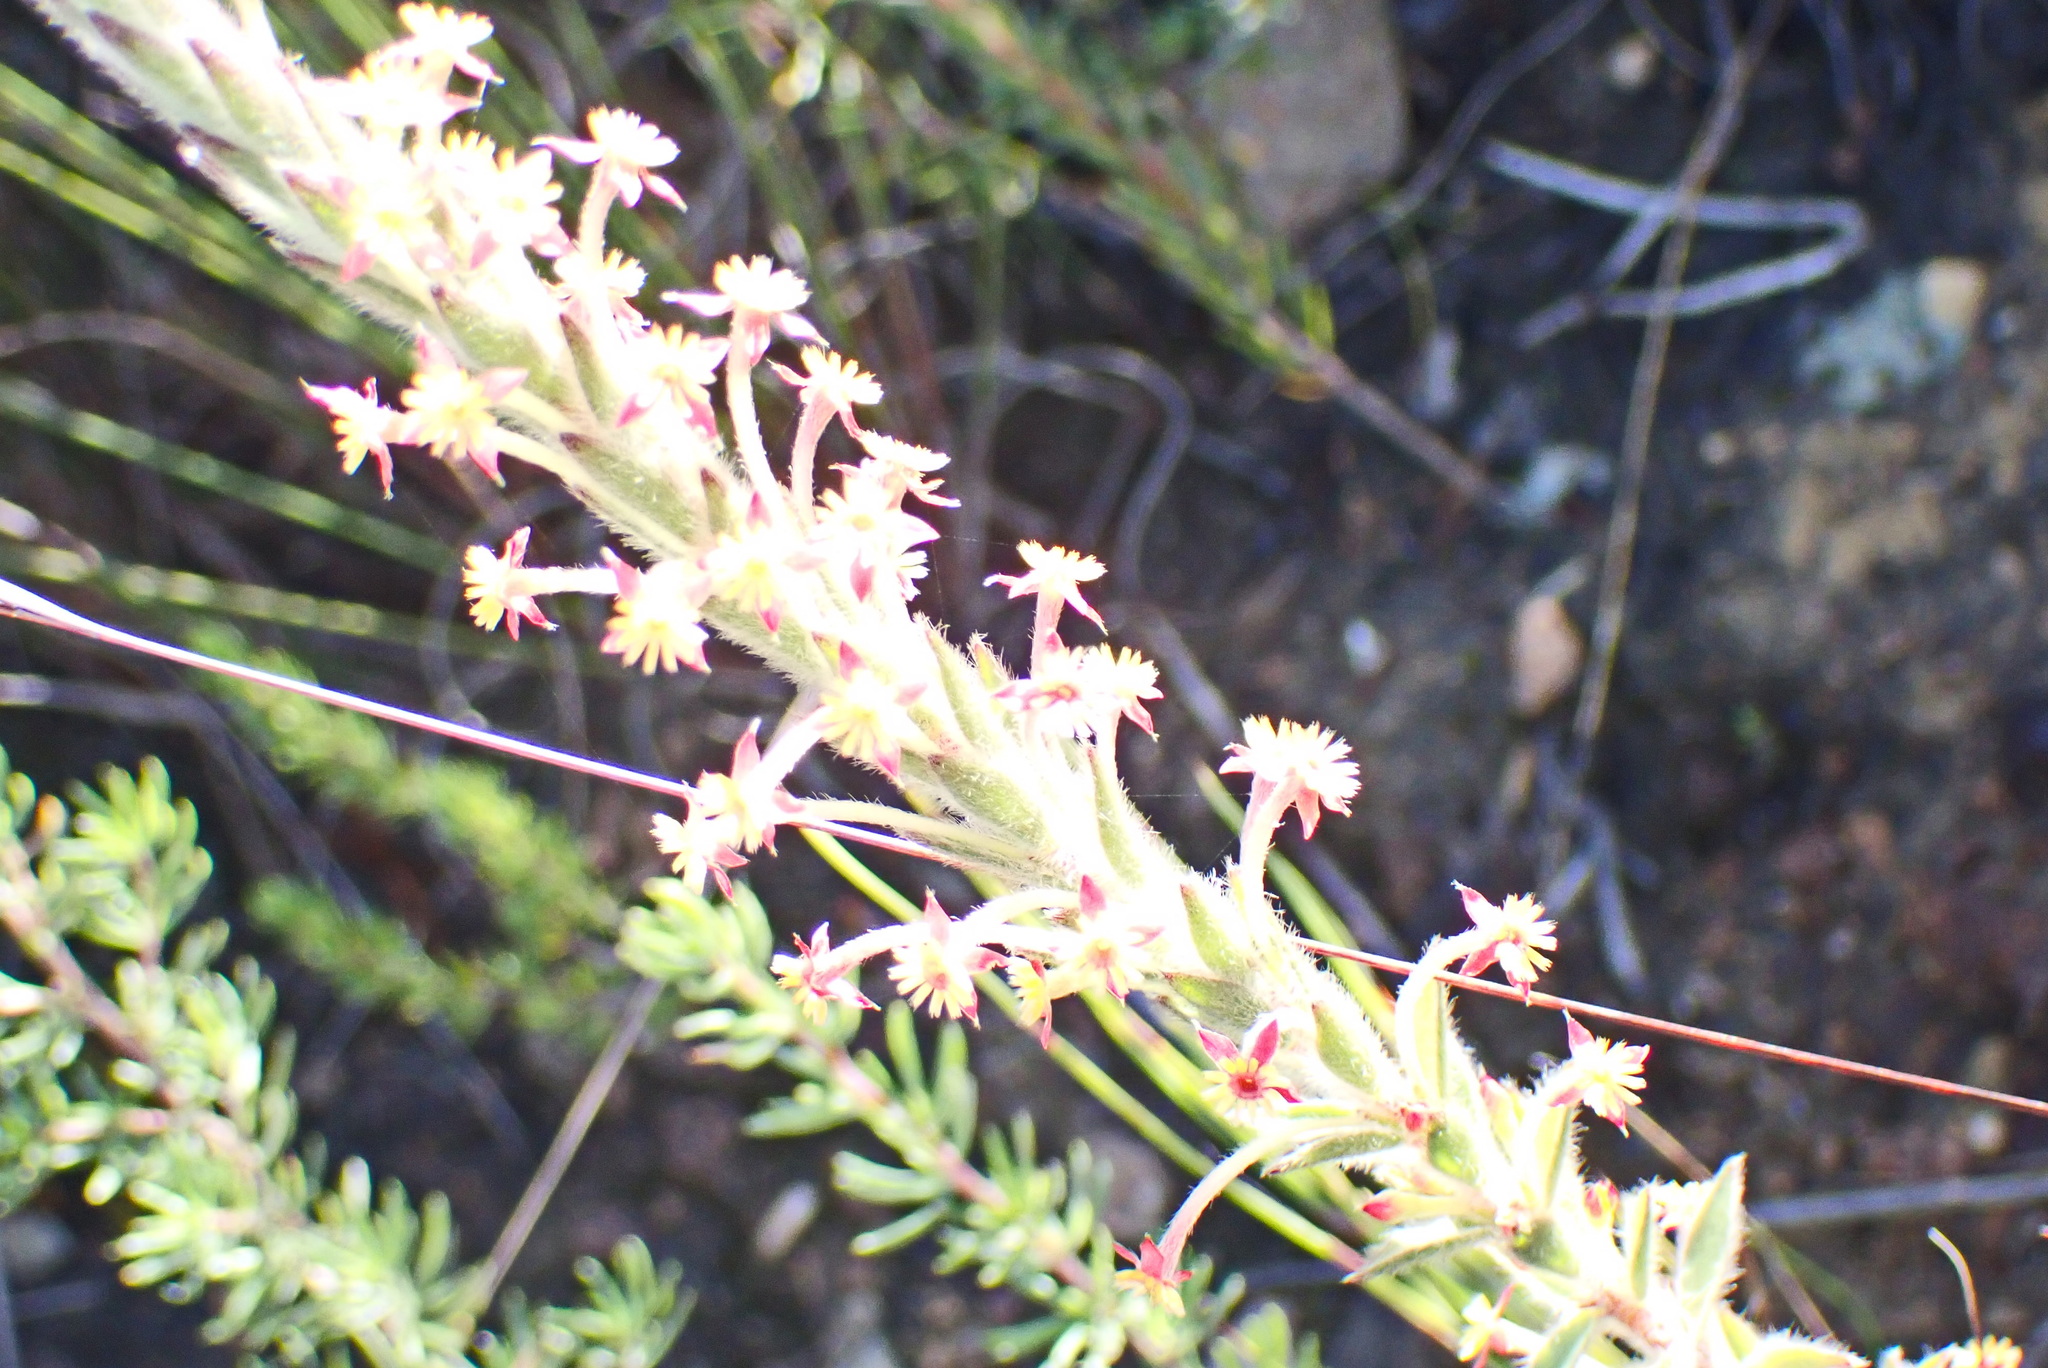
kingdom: Plantae
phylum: Tracheophyta
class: Magnoliopsida
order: Malvales
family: Thymelaeaceae
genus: Struthiola
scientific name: Struthiola tomentosa
